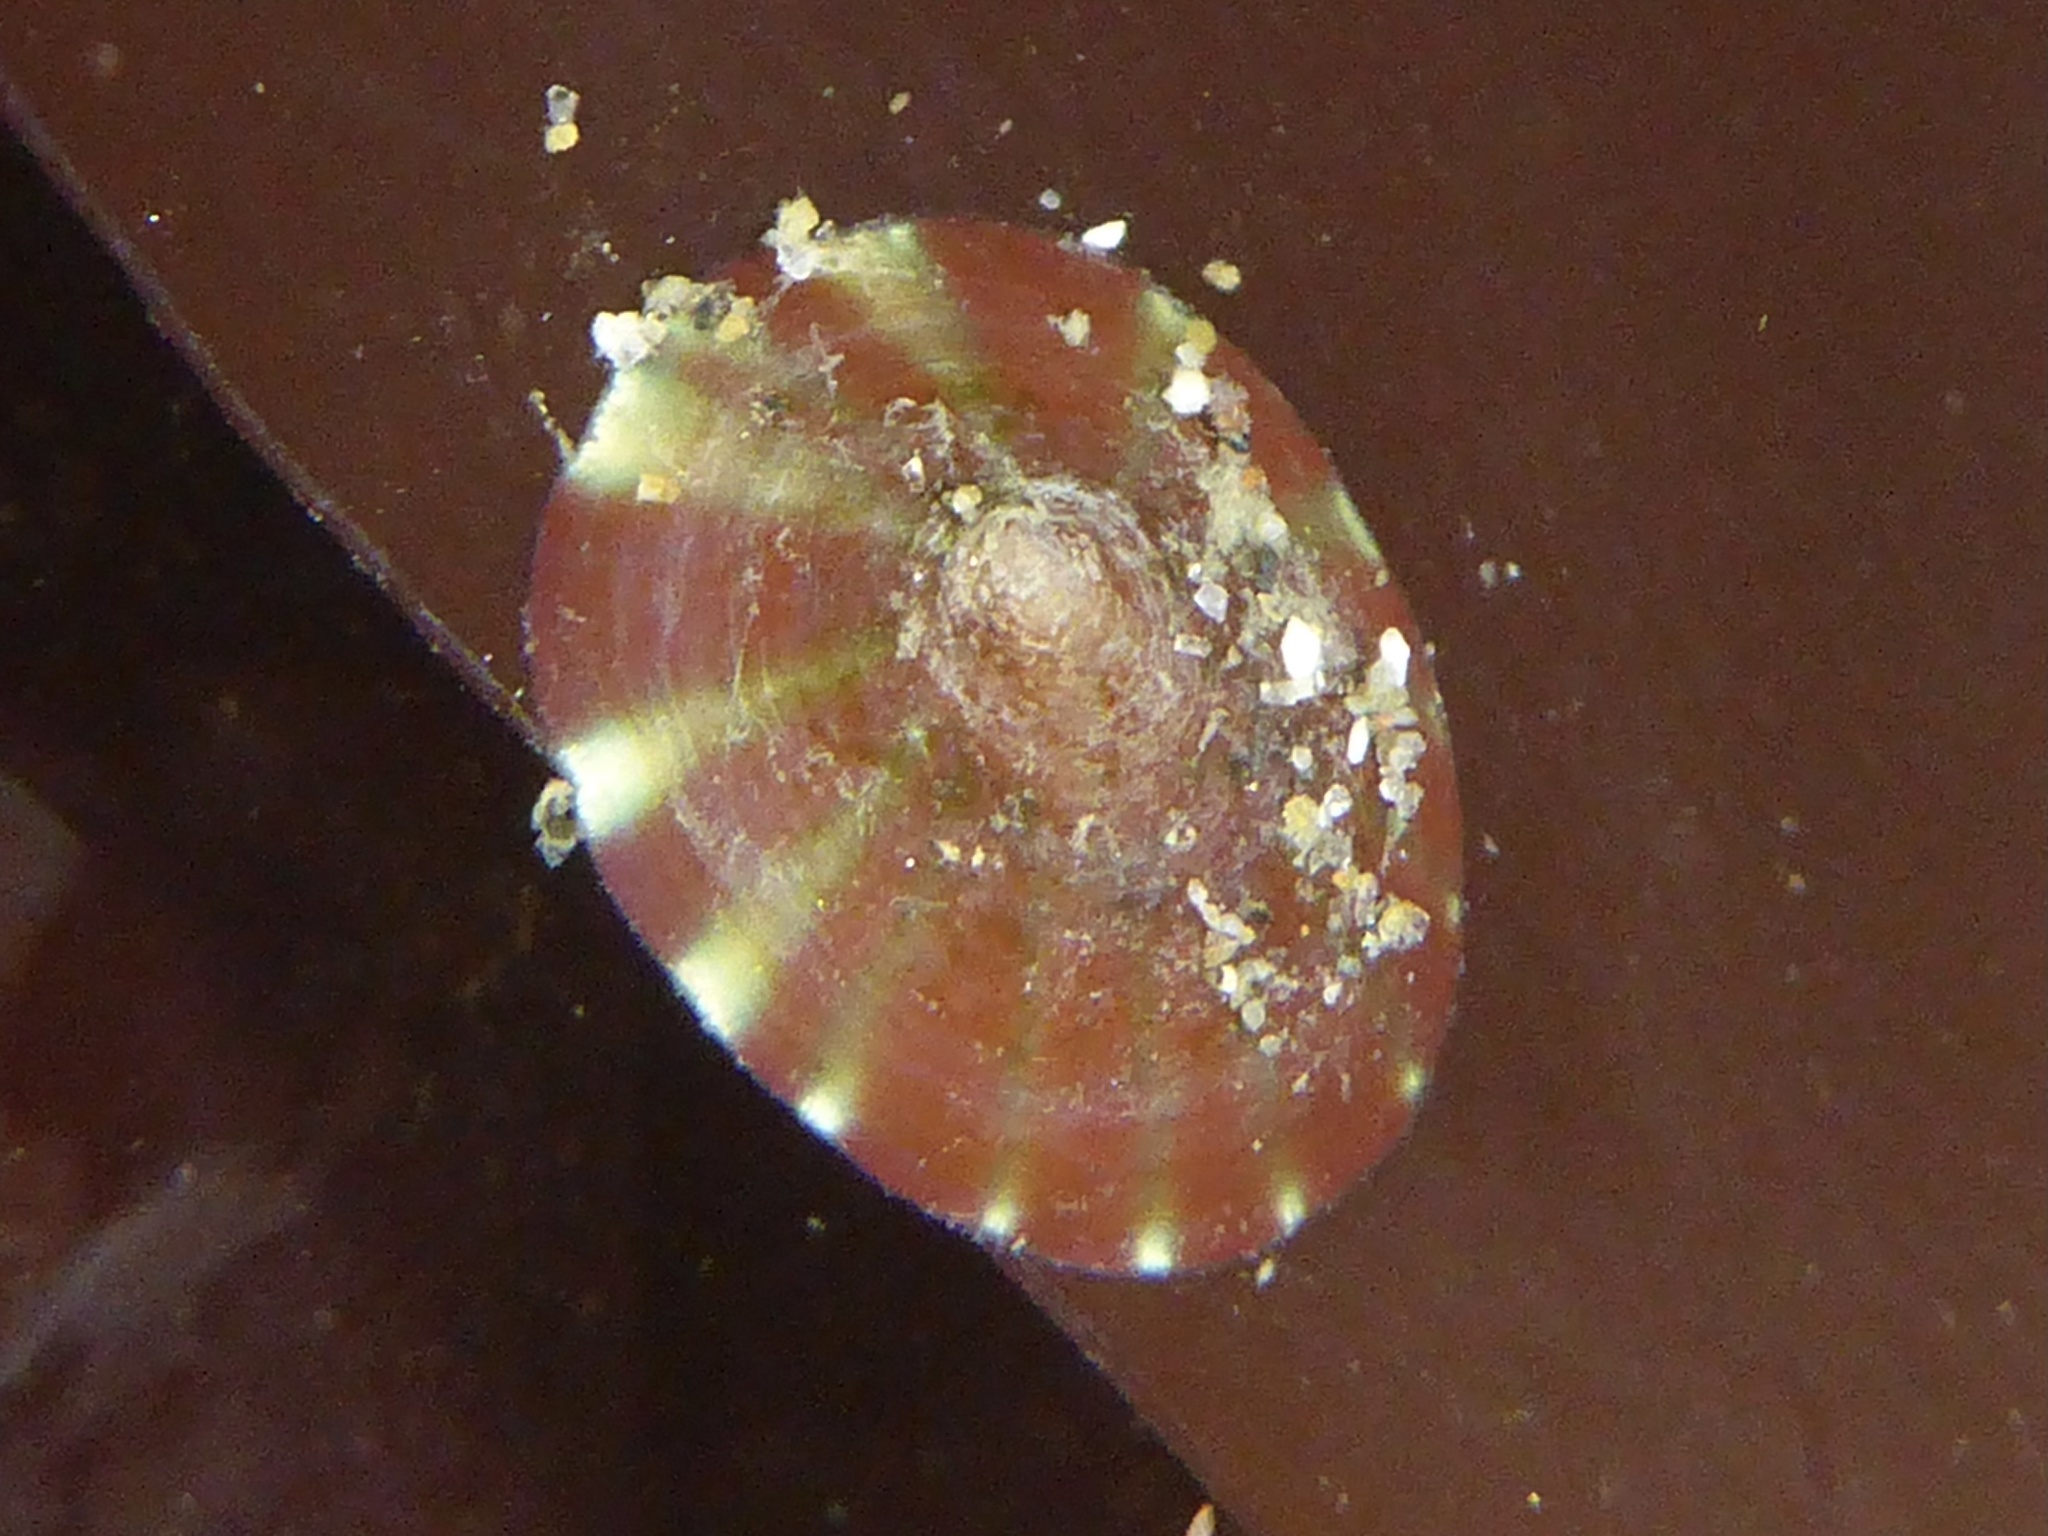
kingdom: Animalia
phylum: Mollusca
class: Gastropoda
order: Siphonariida
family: Siphonariidae
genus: Williamia
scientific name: Williamia peltoides
